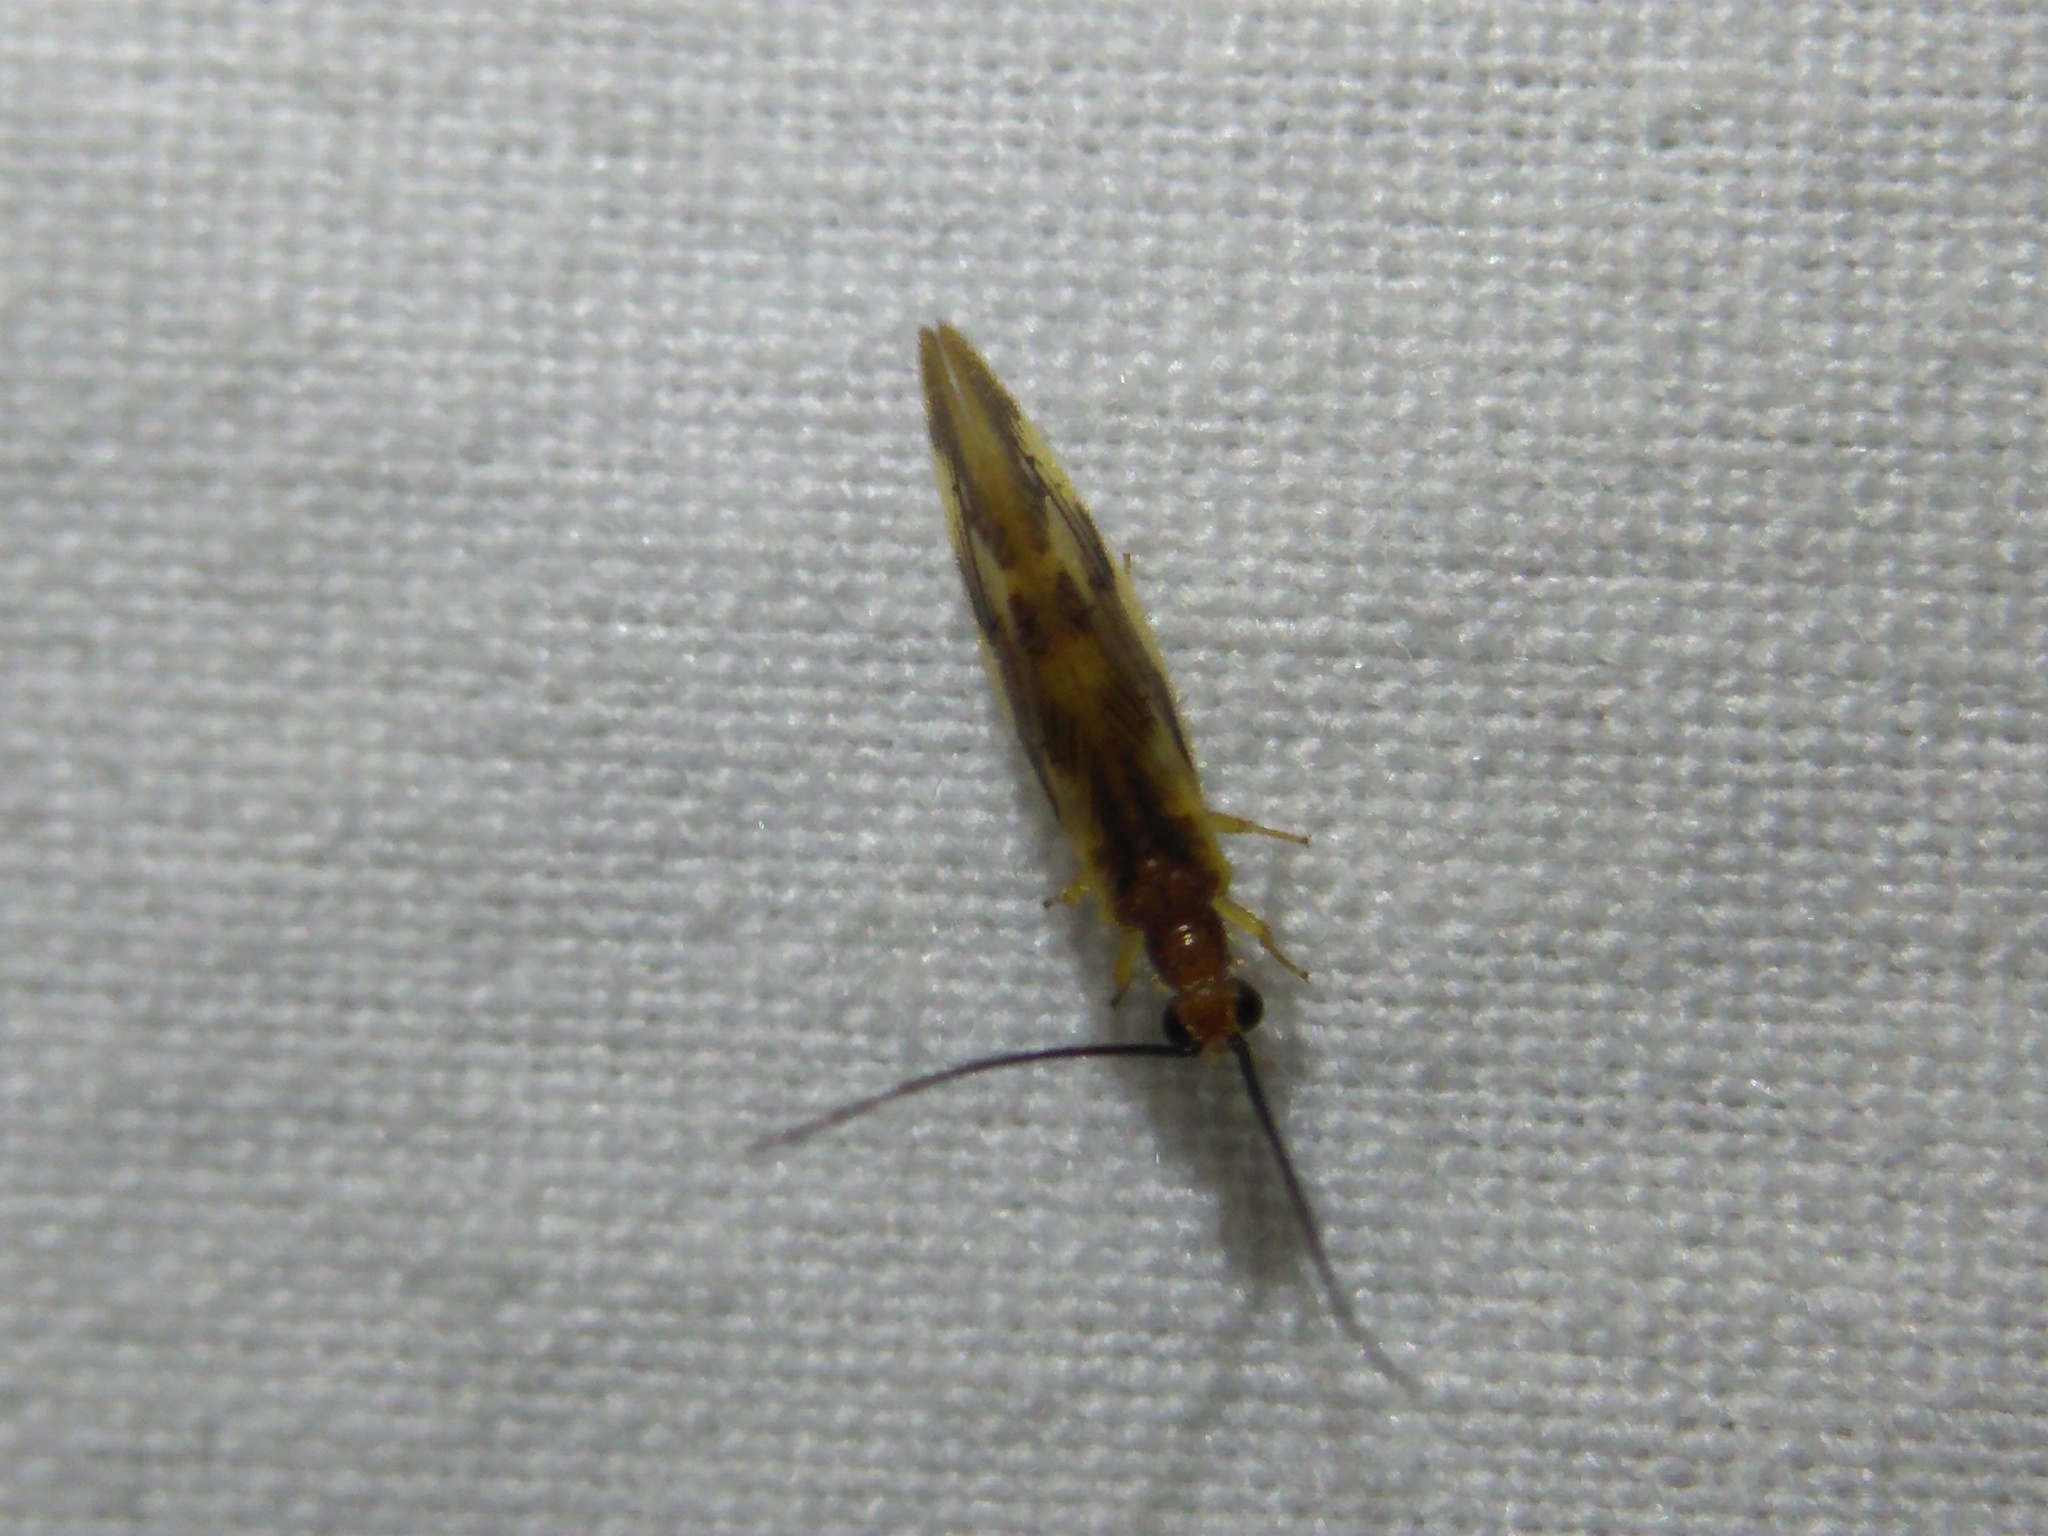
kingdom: Animalia
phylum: Arthropoda
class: Insecta
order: Neuroptera
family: Sisyridae
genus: Climacia
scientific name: Climacia areolaris
